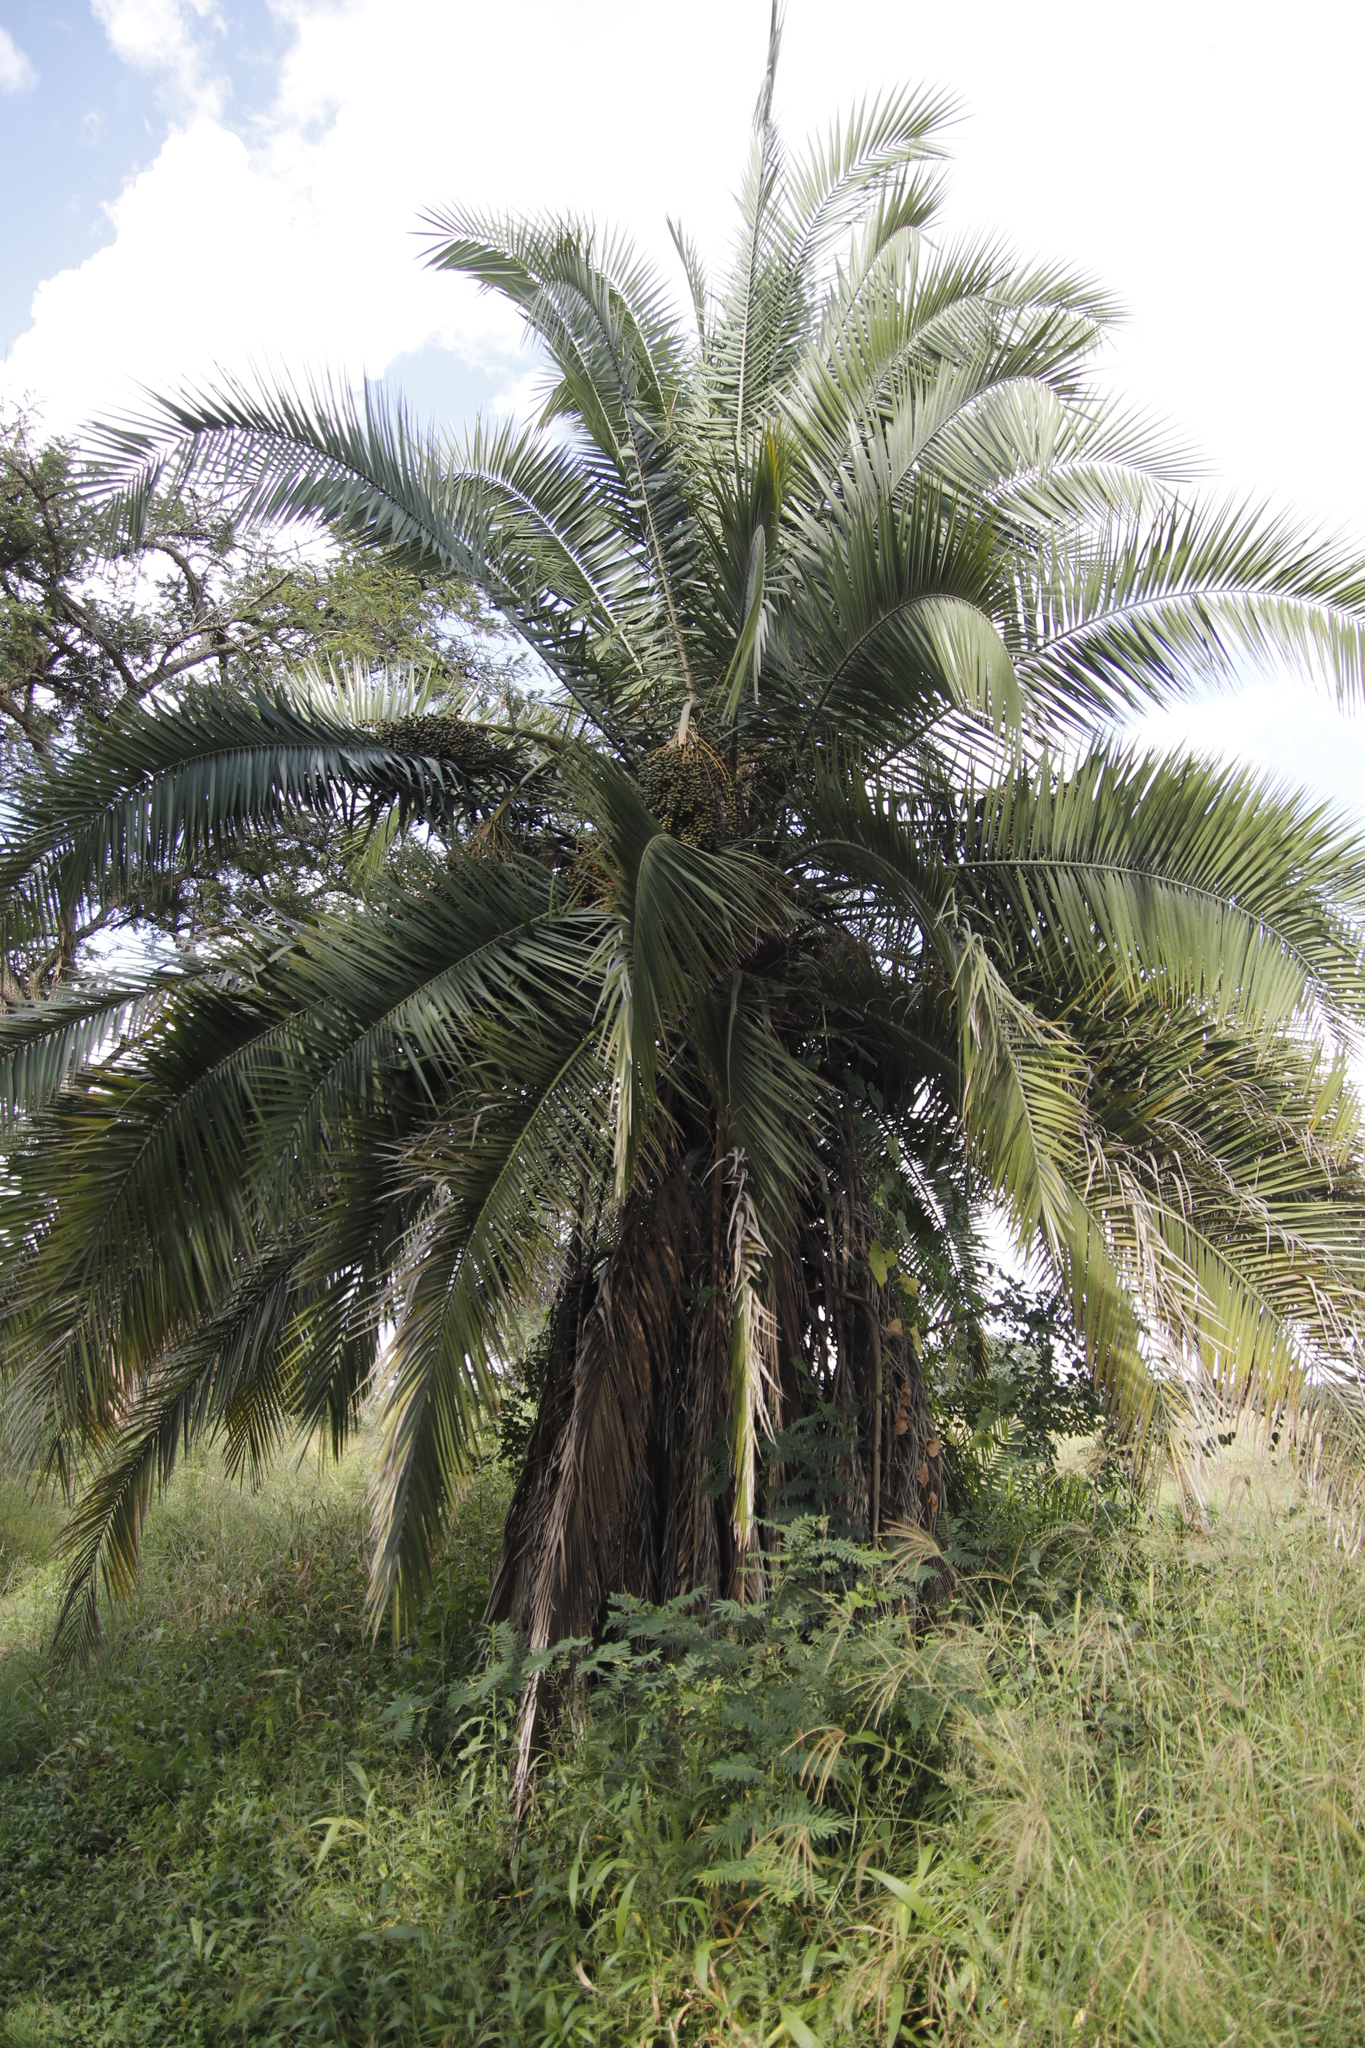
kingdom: Plantae
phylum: Tracheophyta
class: Liliopsida
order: Arecales
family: Arecaceae
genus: Phoenix
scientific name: Phoenix reclinata
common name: Senegal date palm
